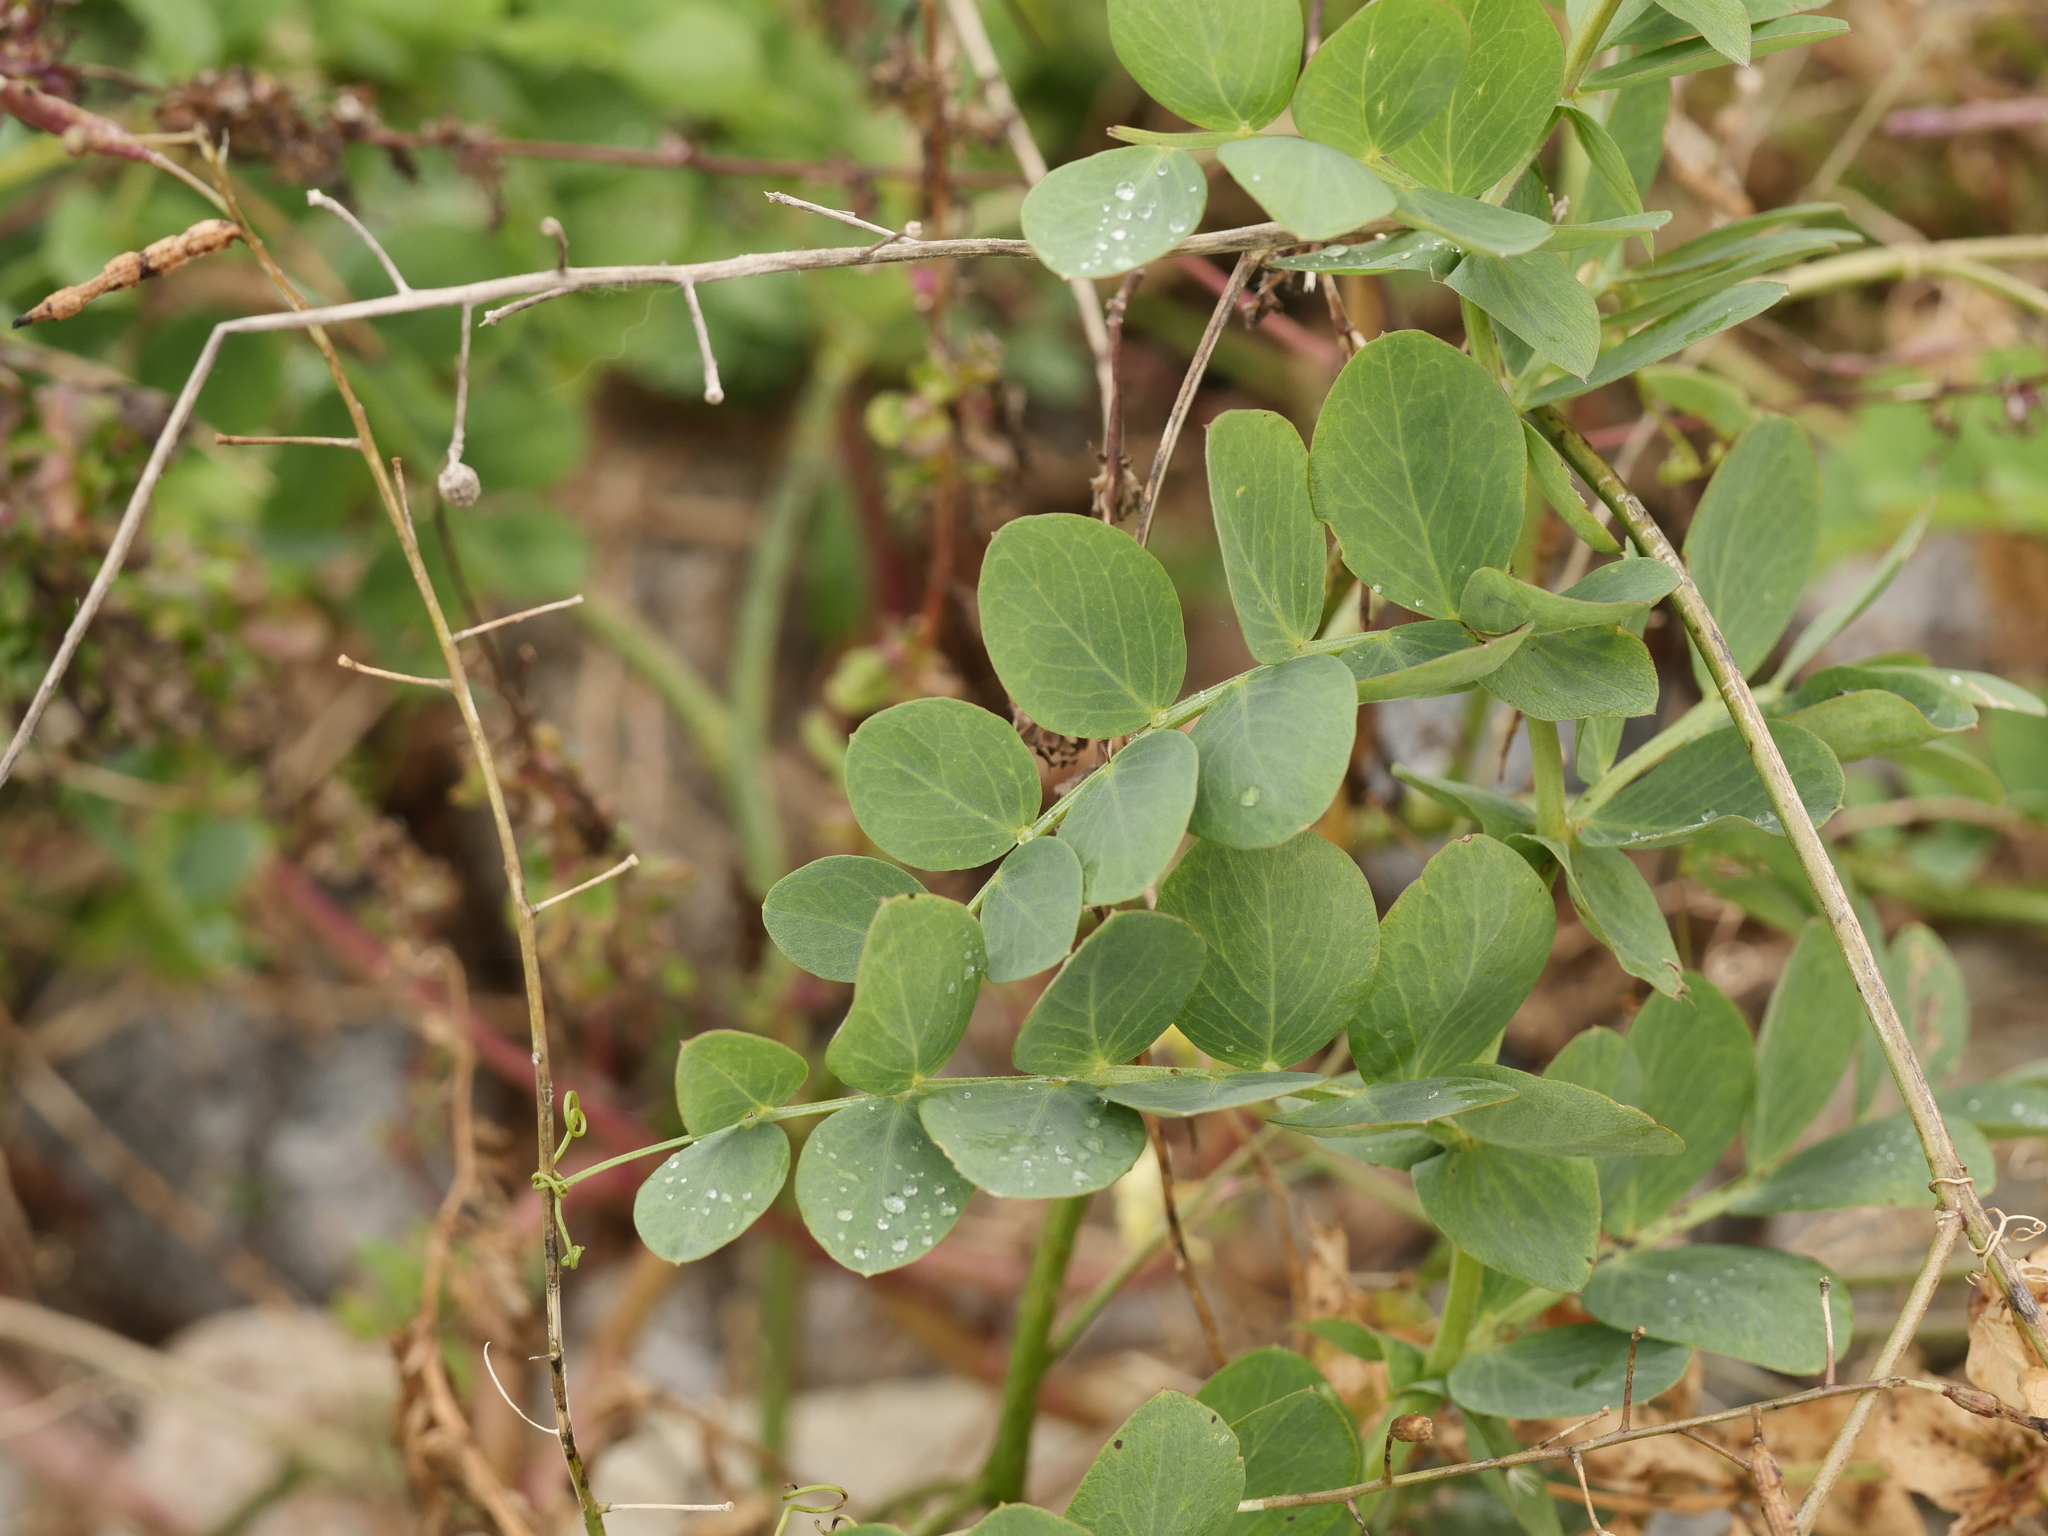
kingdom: Plantae
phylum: Tracheophyta
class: Magnoliopsida
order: Fabales
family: Fabaceae
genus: Lathyrus
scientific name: Lathyrus japonicus
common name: Sea pea
